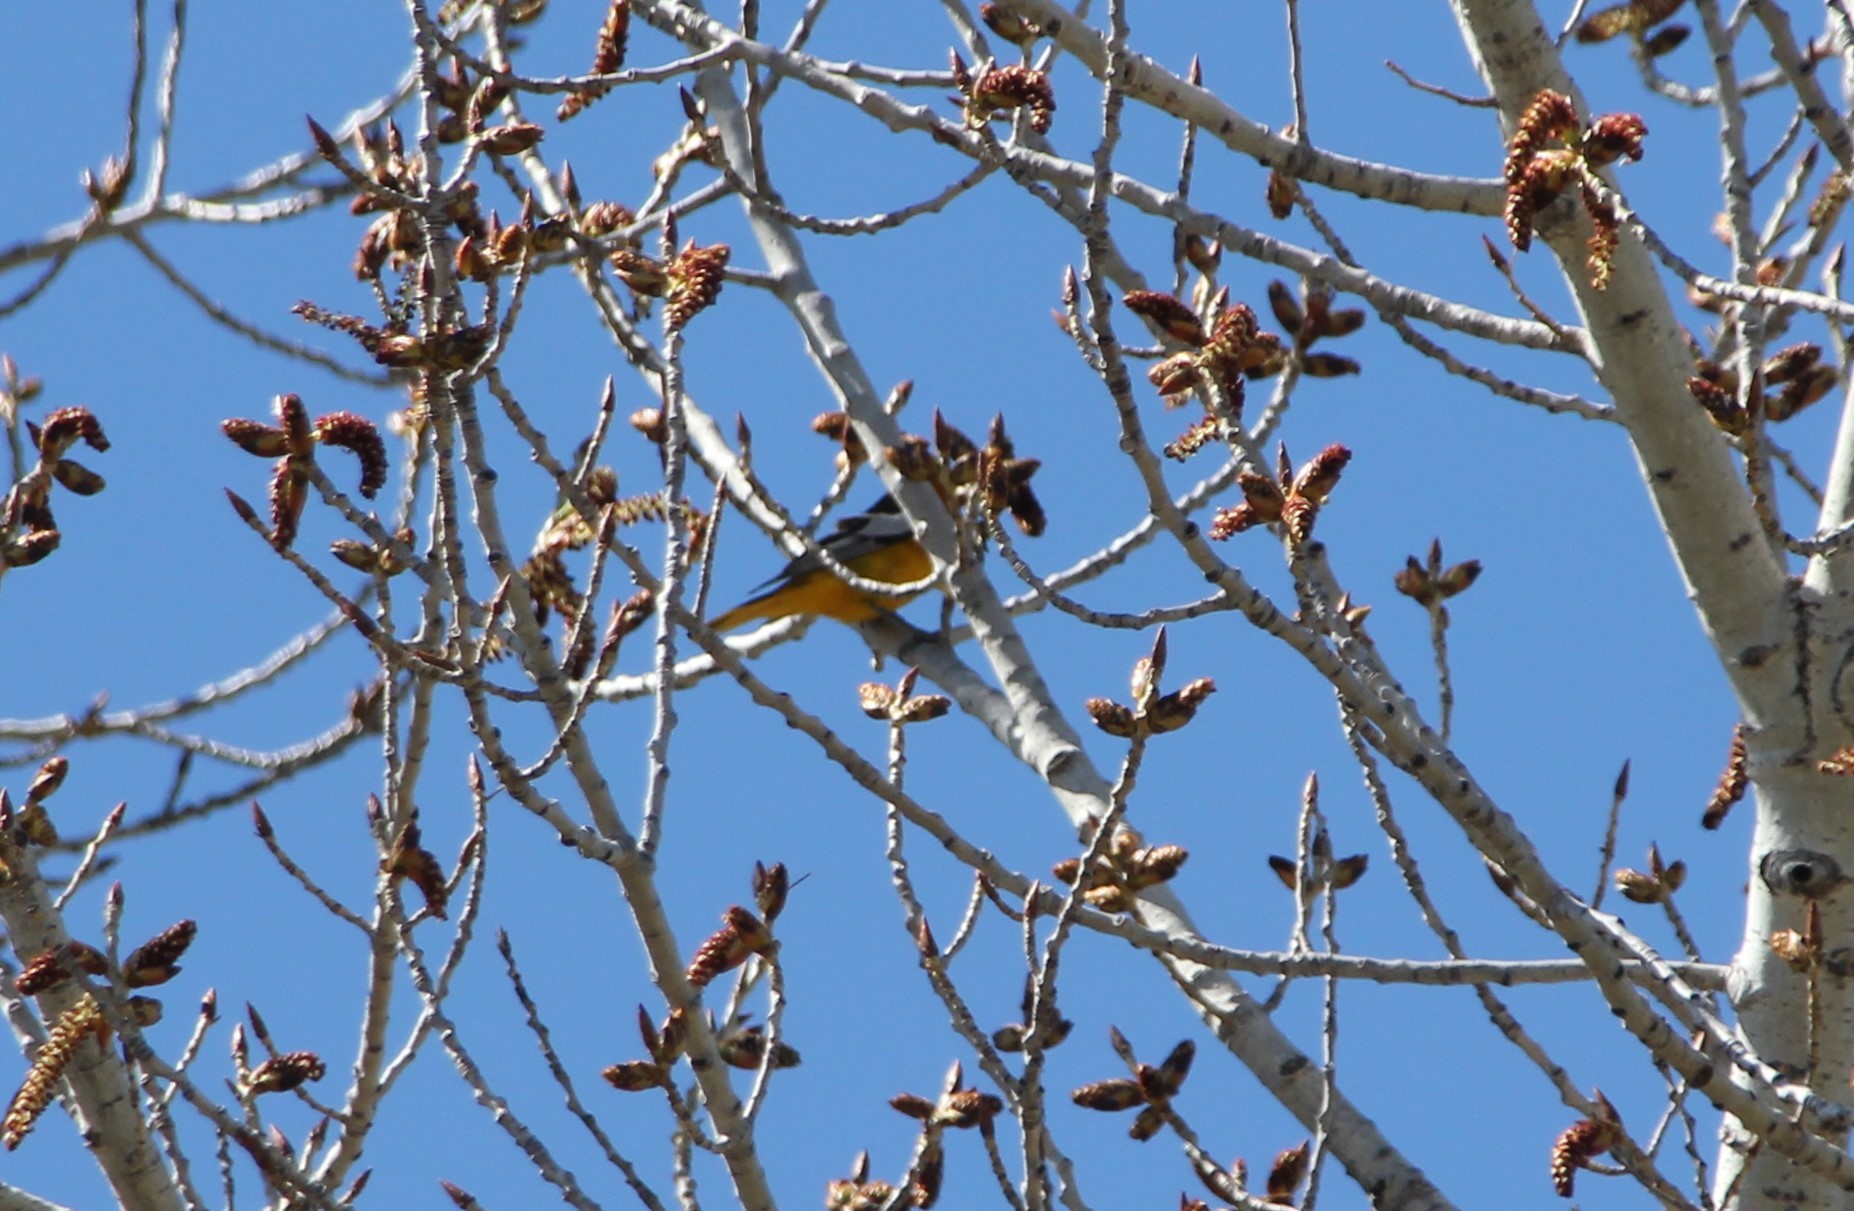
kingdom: Animalia
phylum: Chordata
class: Aves
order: Passeriformes
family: Icteridae
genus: Icterus
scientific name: Icterus bullockii
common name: Bullock's oriole
